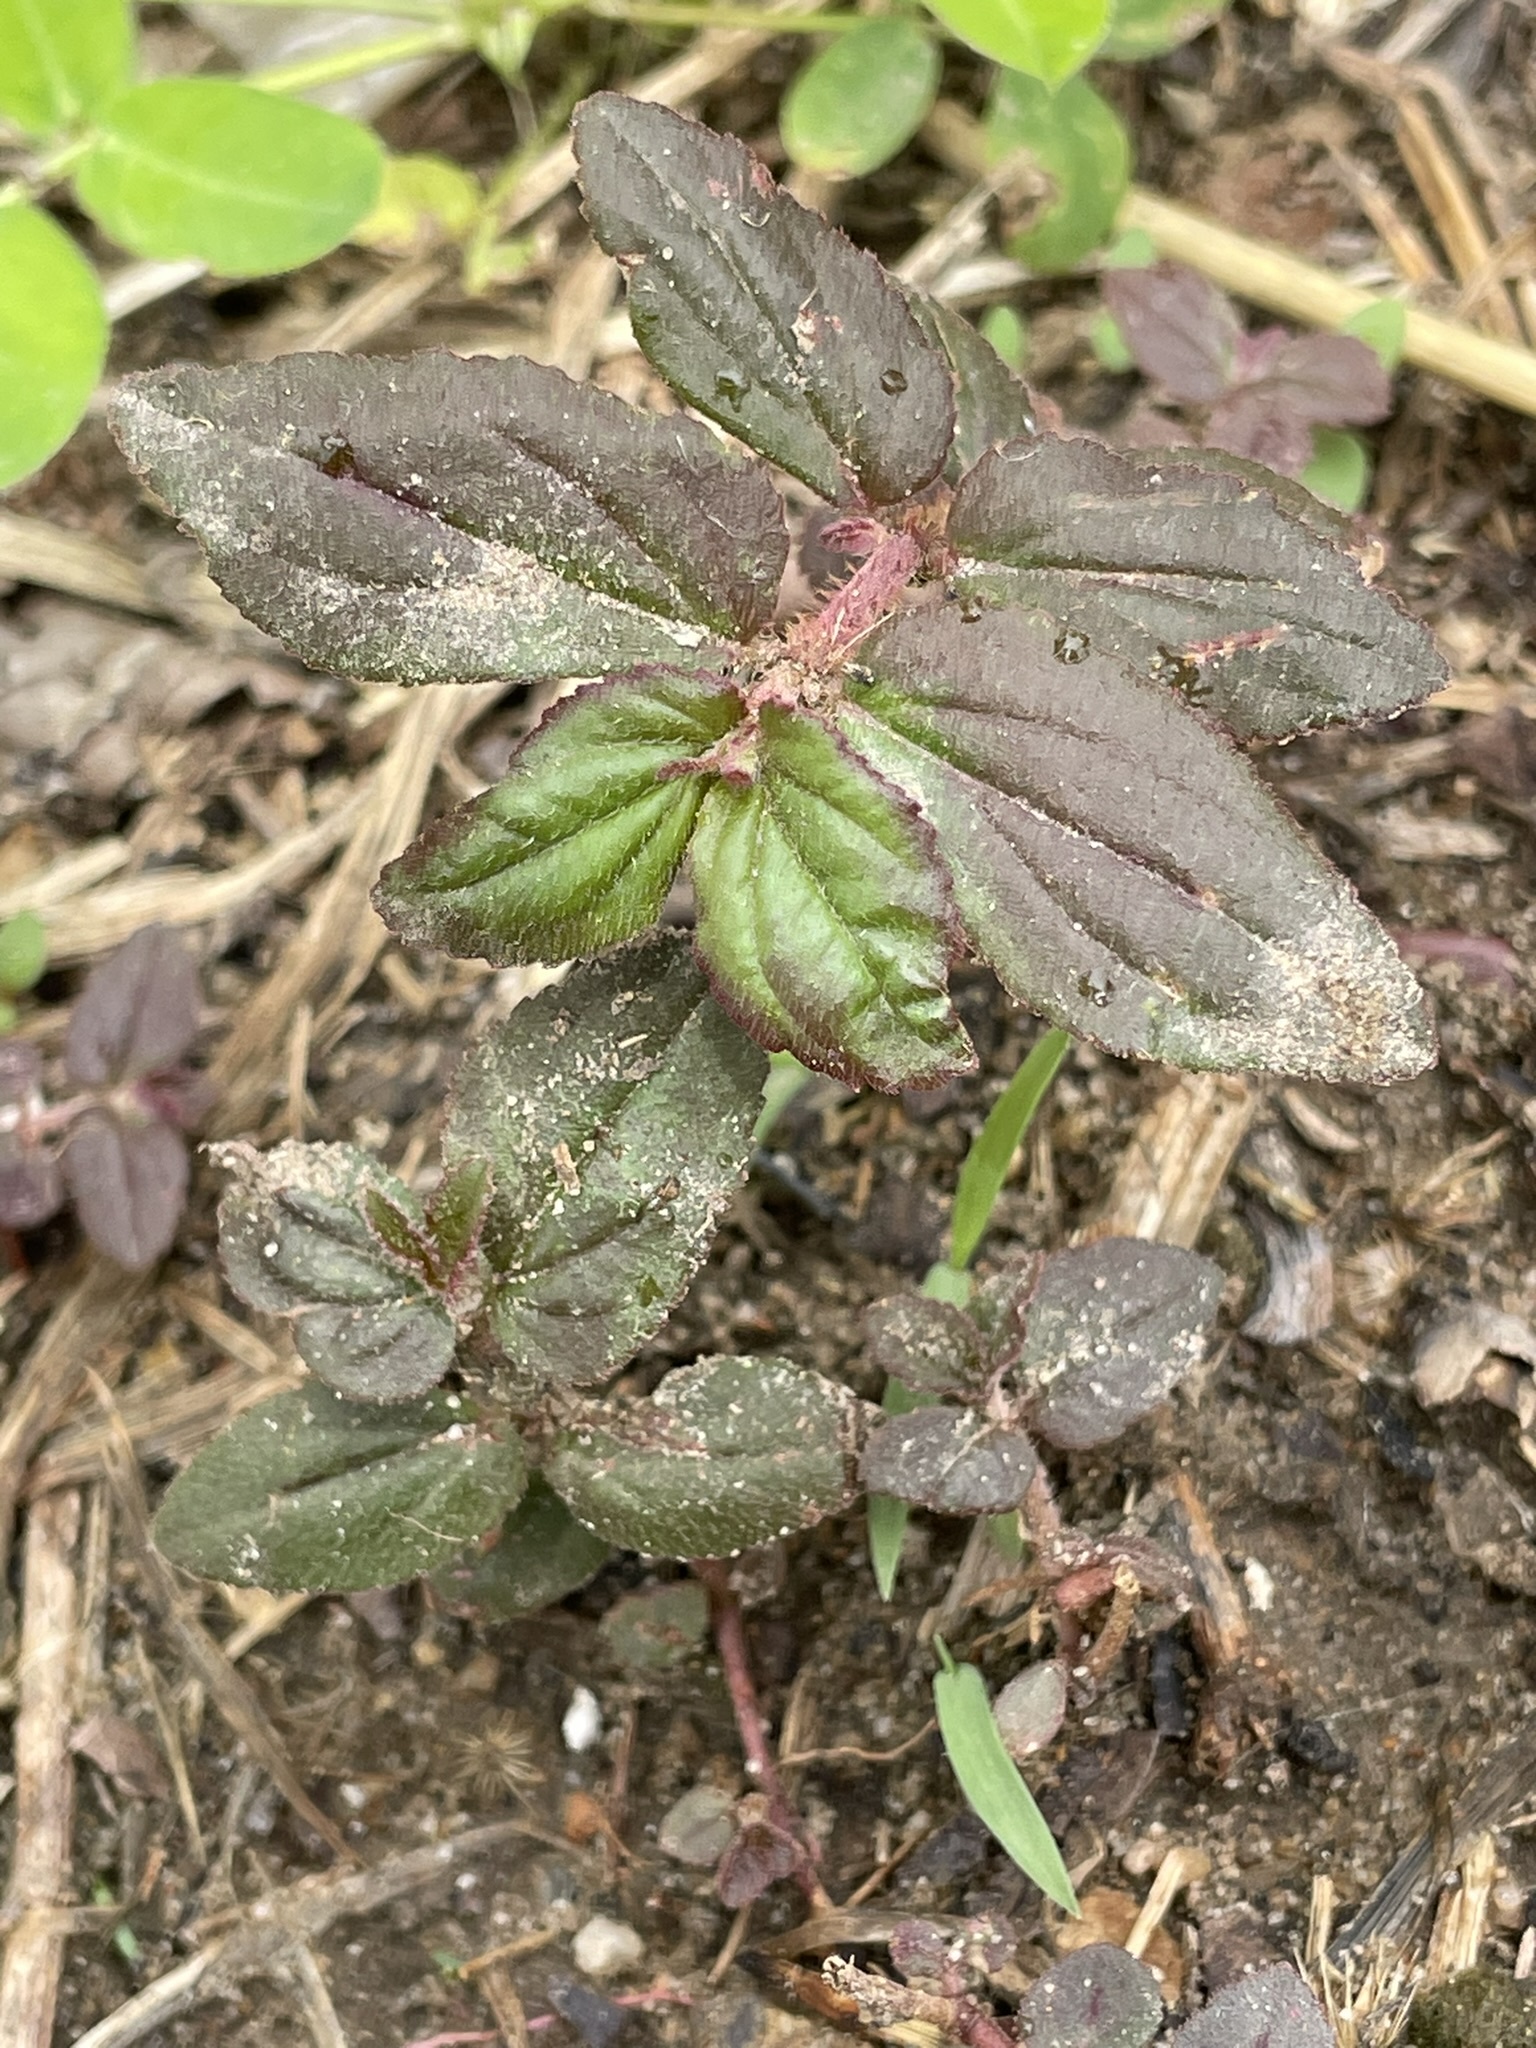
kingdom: Plantae
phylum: Tracheophyta
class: Magnoliopsida
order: Malpighiales
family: Euphorbiaceae
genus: Euphorbia
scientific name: Euphorbia hirta
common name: Pillpod sandmat
